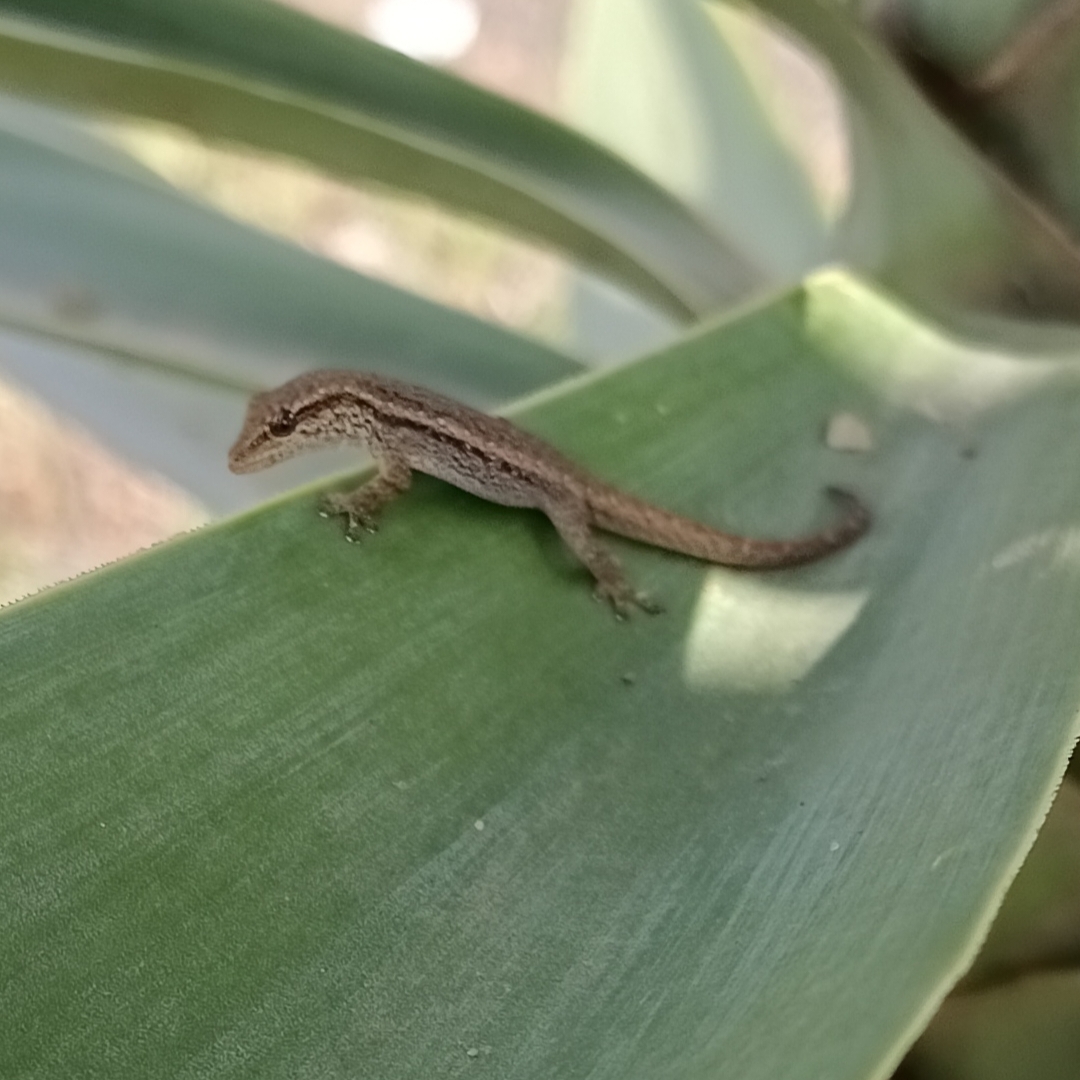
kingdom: Animalia
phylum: Chordata
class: Squamata
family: Gekkonidae
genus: Lygodactylus
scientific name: Lygodactylus capensis
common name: Cape dwarf gecko
